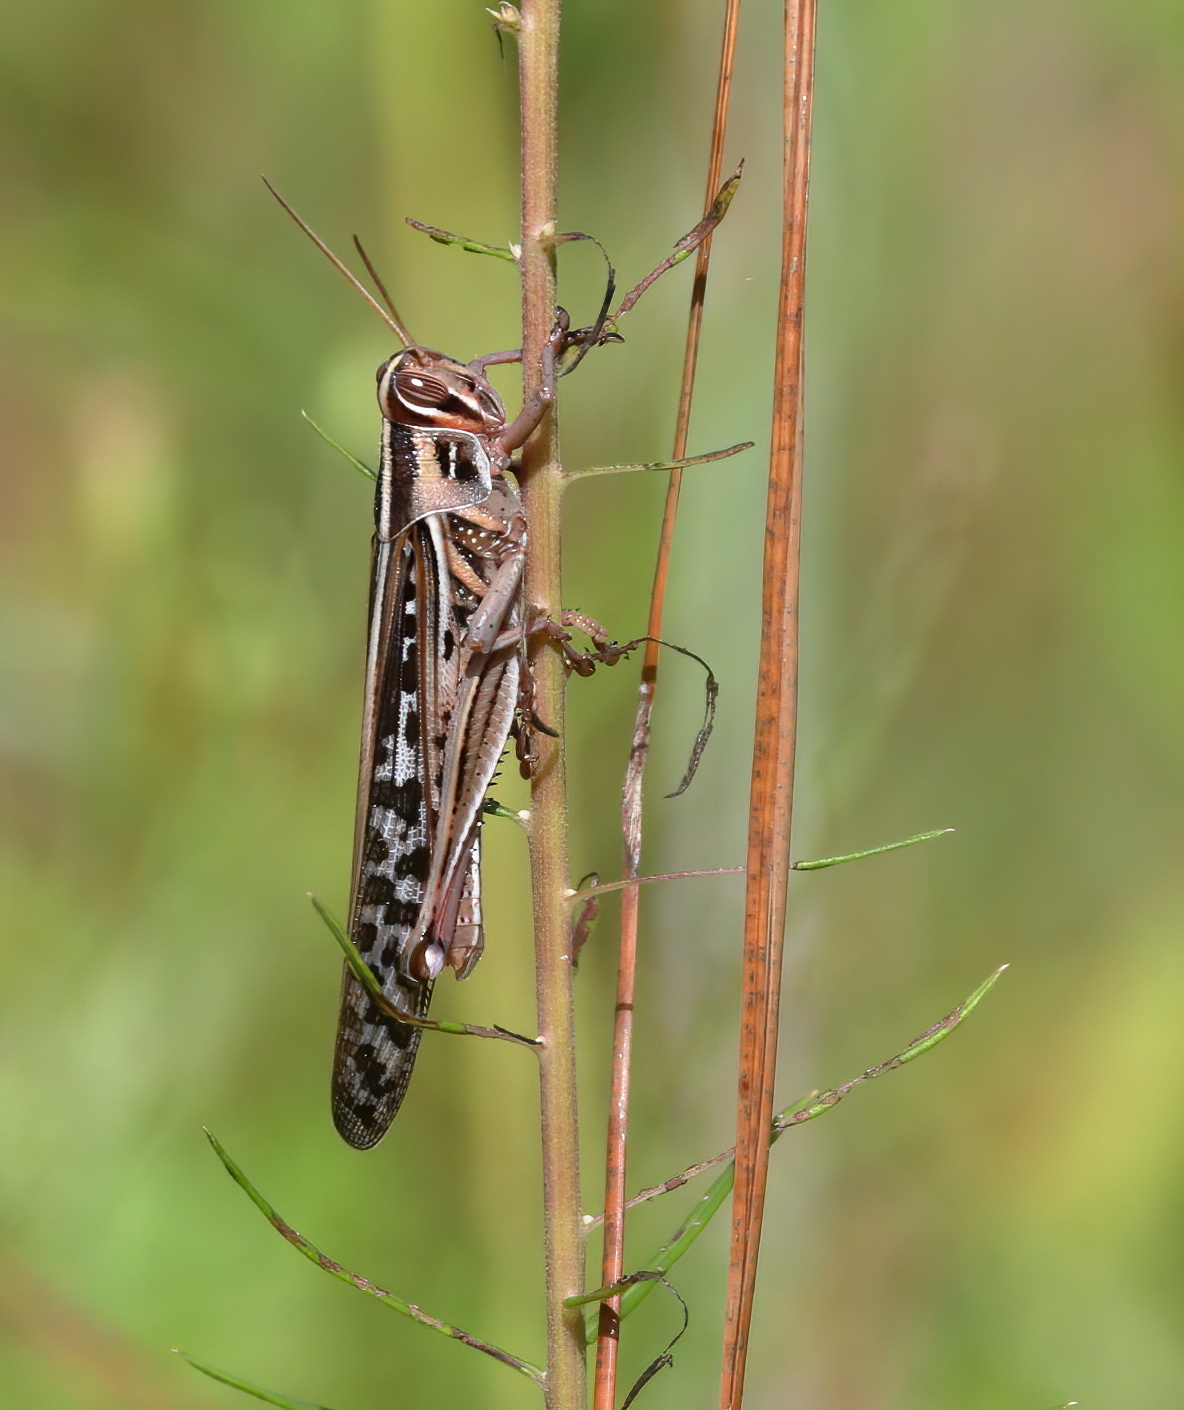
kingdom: Animalia
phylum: Arthropoda
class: Insecta
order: Orthoptera
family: Acrididae
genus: Schistocerca
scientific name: Schistocerca americana
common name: American bird locust
